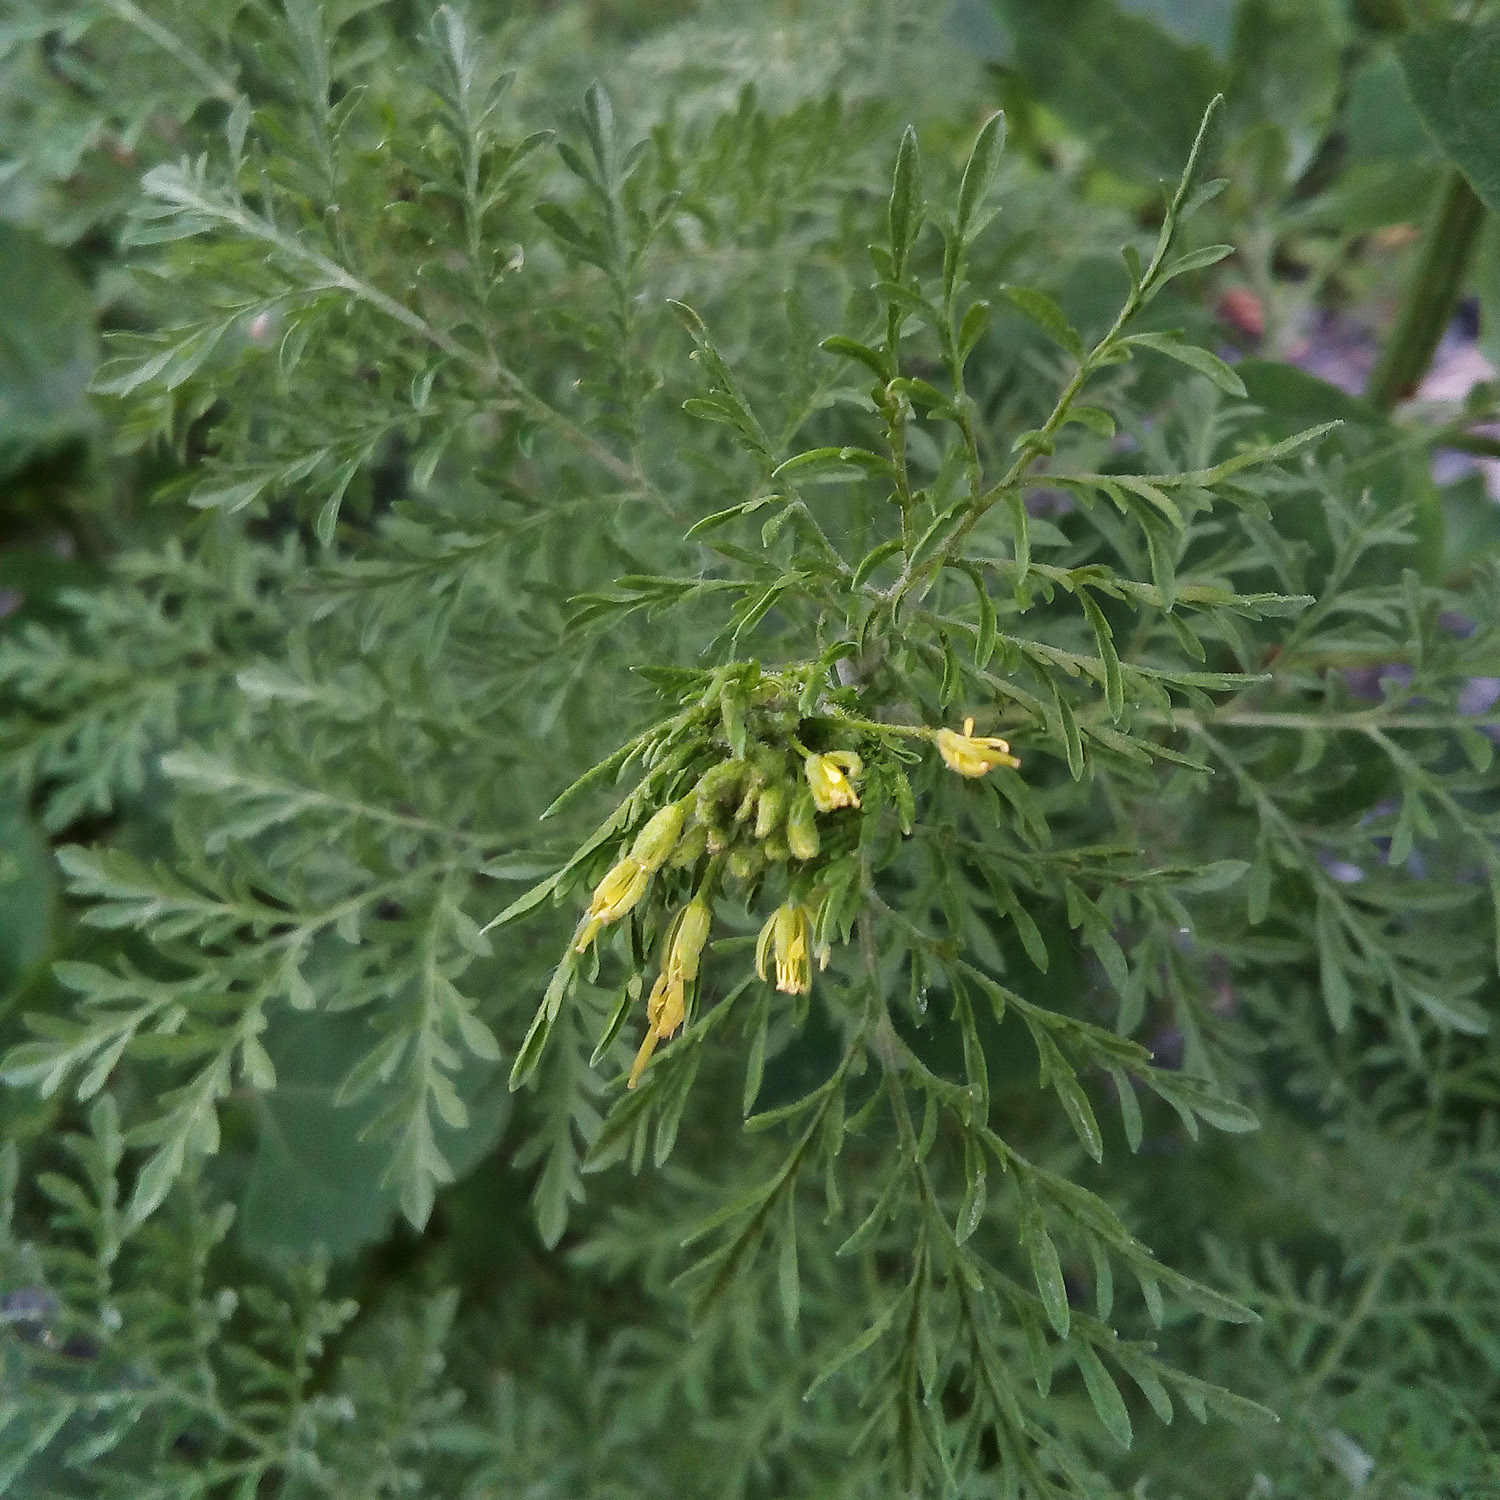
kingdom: Plantae
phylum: Tracheophyta
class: Magnoliopsida
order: Brassicales
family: Brassicaceae
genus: Descurainia
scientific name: Descurainia sophia
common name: Flixweed
